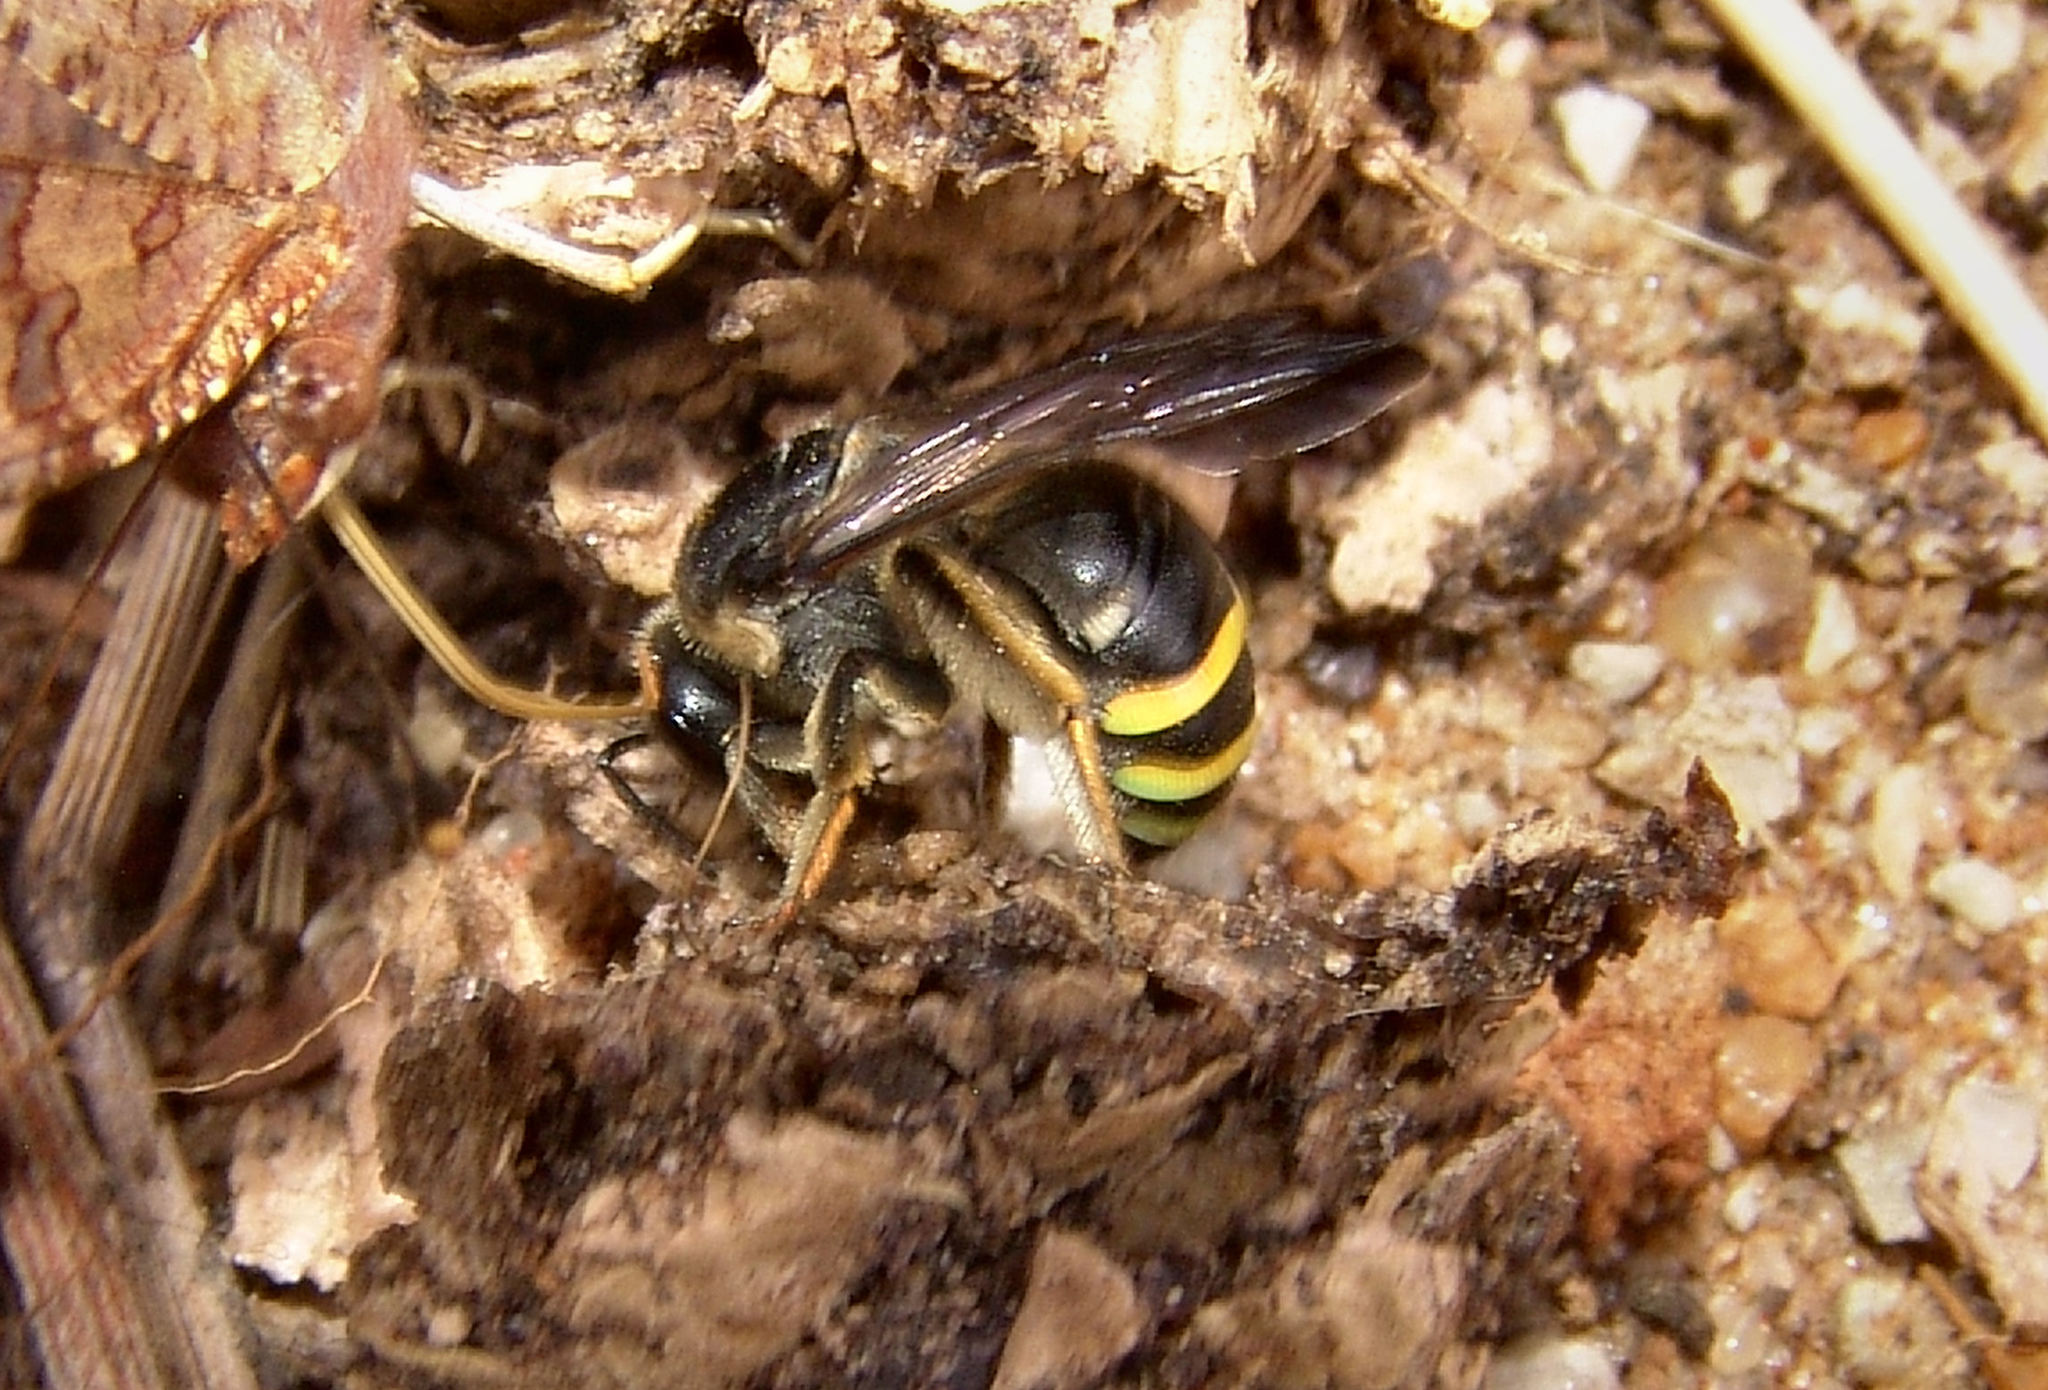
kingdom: Animalia
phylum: Arthropoda
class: Insecta
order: Hymenoptera
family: Halictidae
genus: Nomia
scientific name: Nomia nortoni
